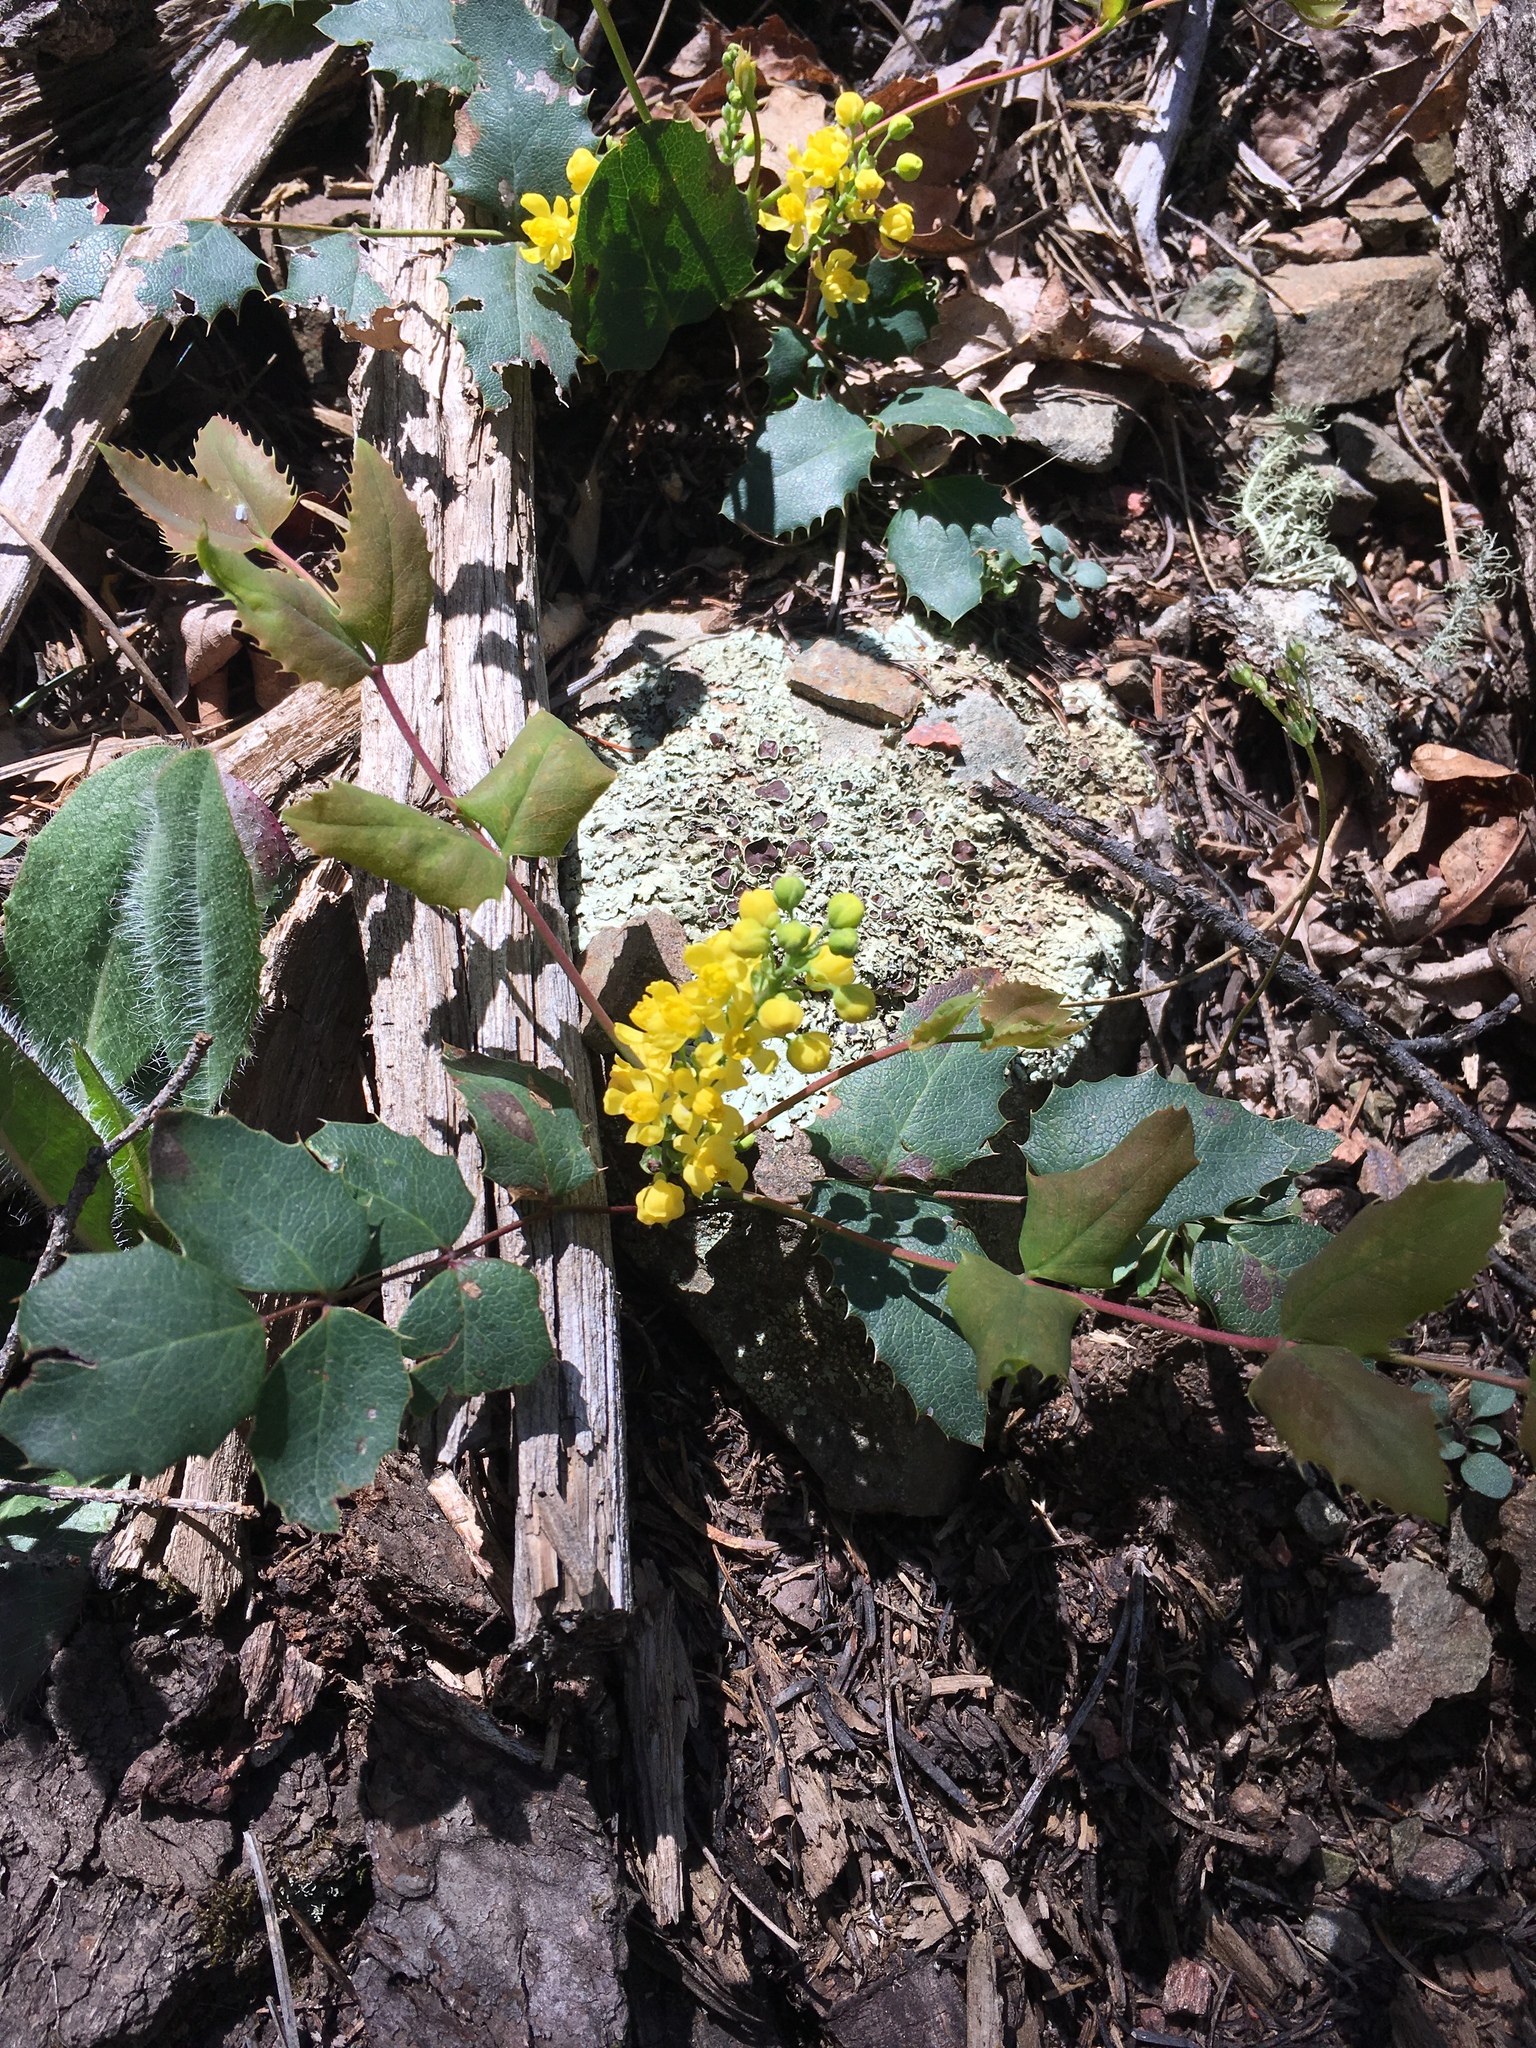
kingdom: Plantae
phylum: Tracheophyta
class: Magnoliopsida
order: Ranunculales
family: Berberidaceae
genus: Mahonia
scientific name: Mahonia repens
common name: Creeping oregon-grape
